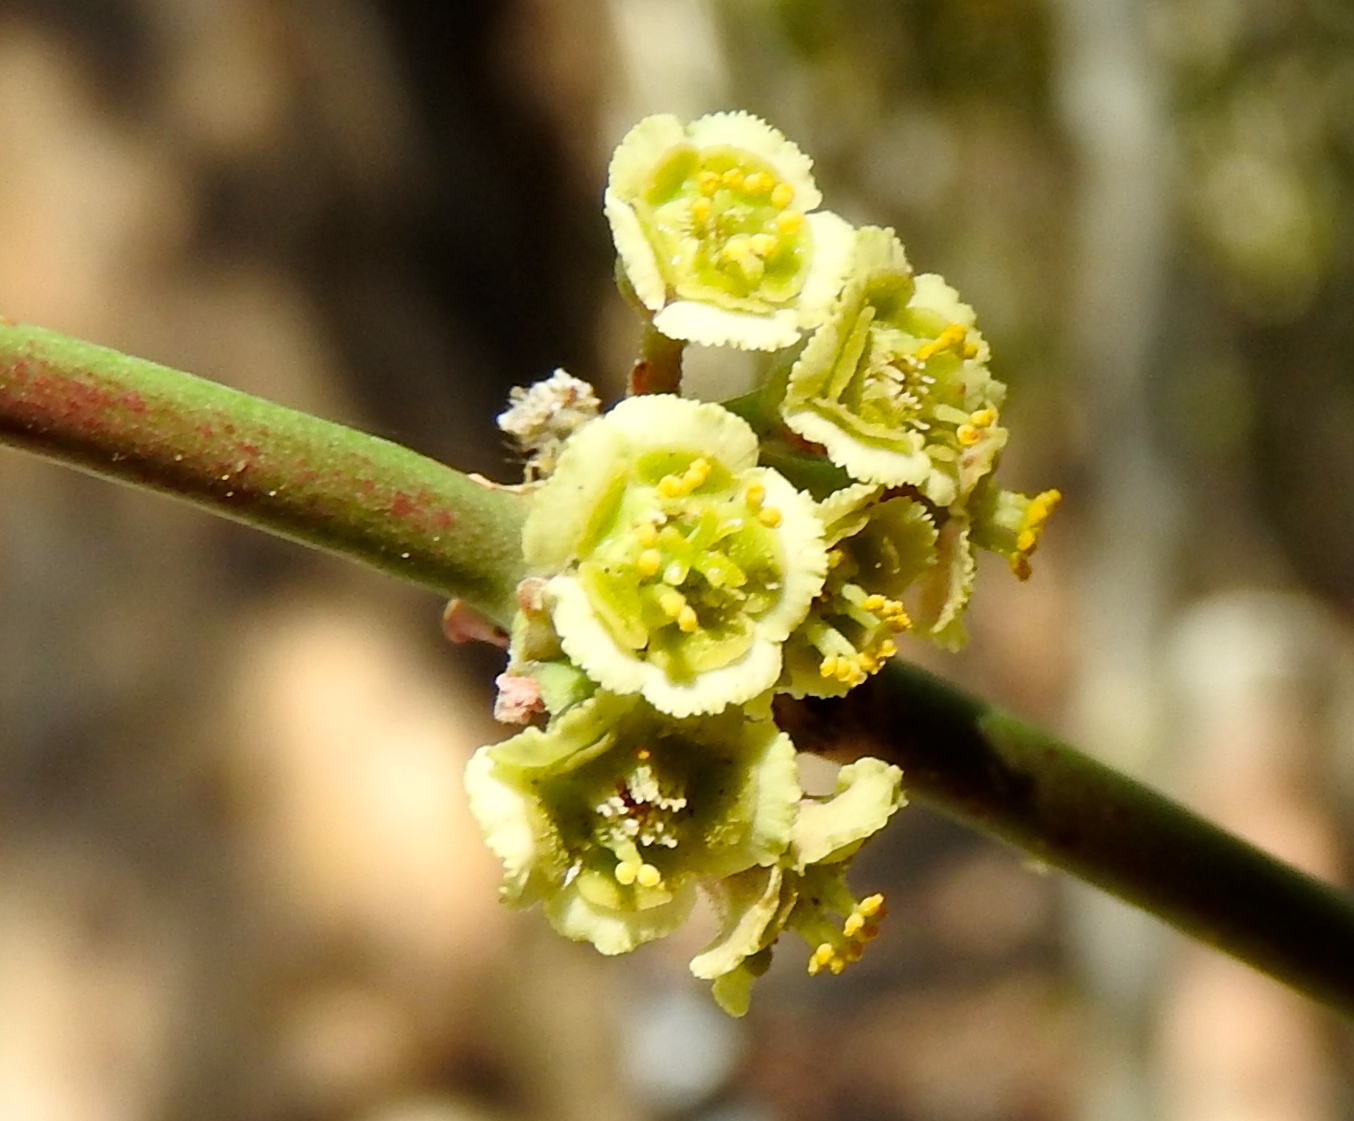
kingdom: Plantae
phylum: Tracheophyta
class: Magnoliopsida
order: Malpighiales
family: Euphorbiaceae
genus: Euphorbia
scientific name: Euphorbia colletioides
